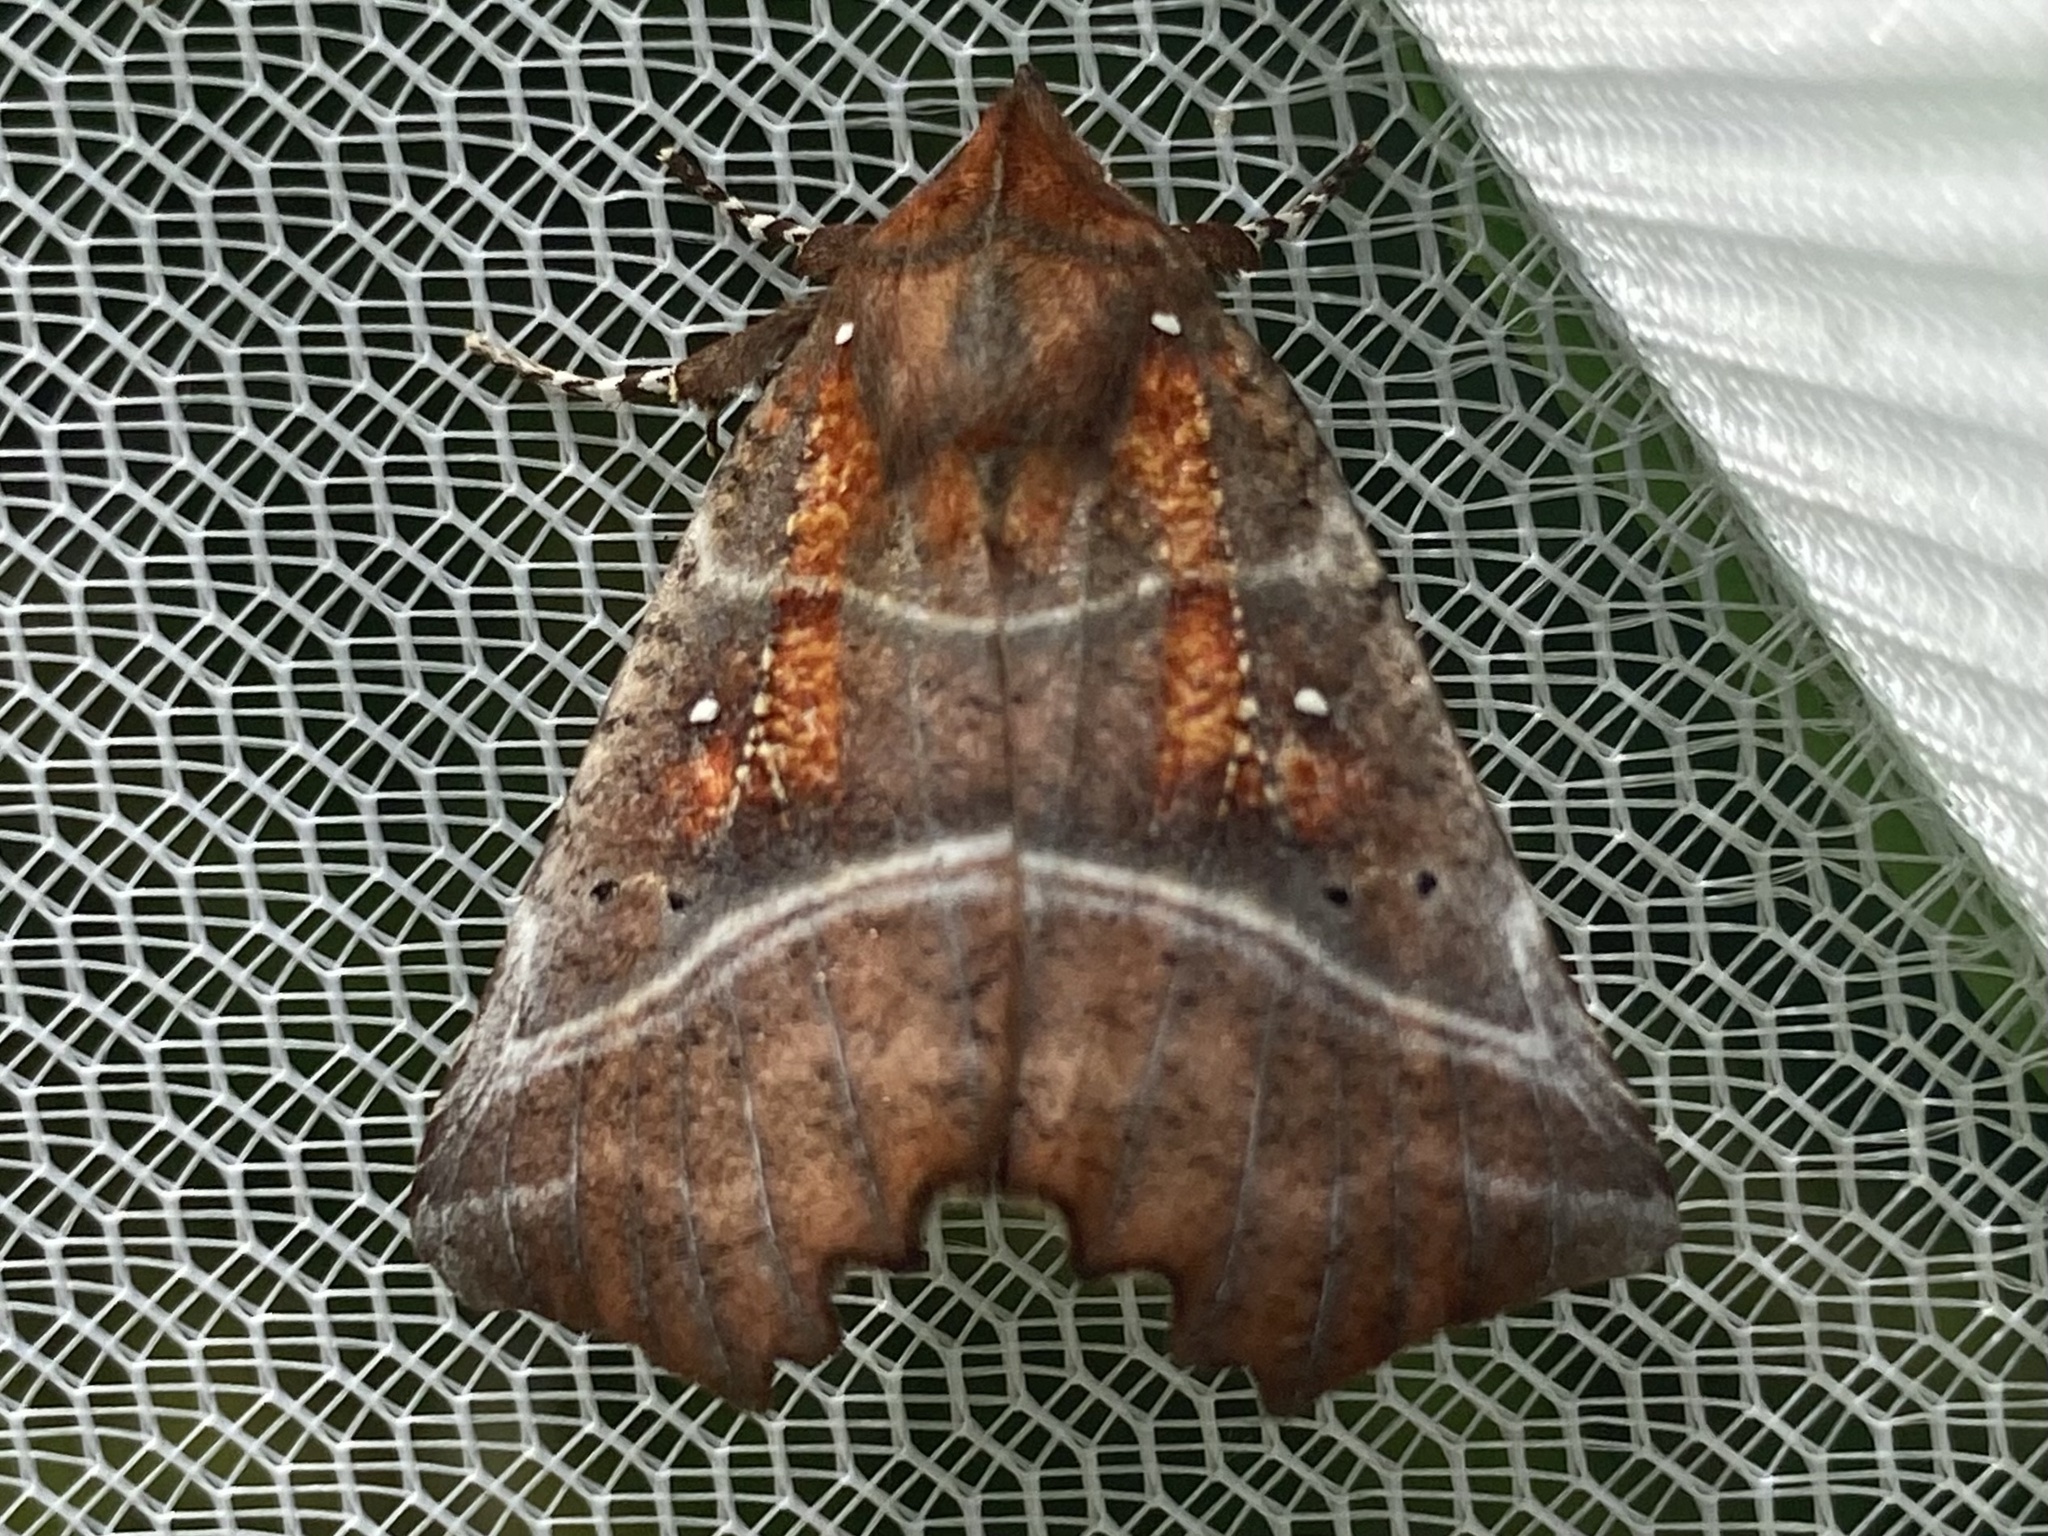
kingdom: Animalia
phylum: Arthropoda
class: Insecta
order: Lepidoptera
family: Erebidae
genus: Scoliopteryx
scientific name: Scoliopteryx libatrix
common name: Herald
